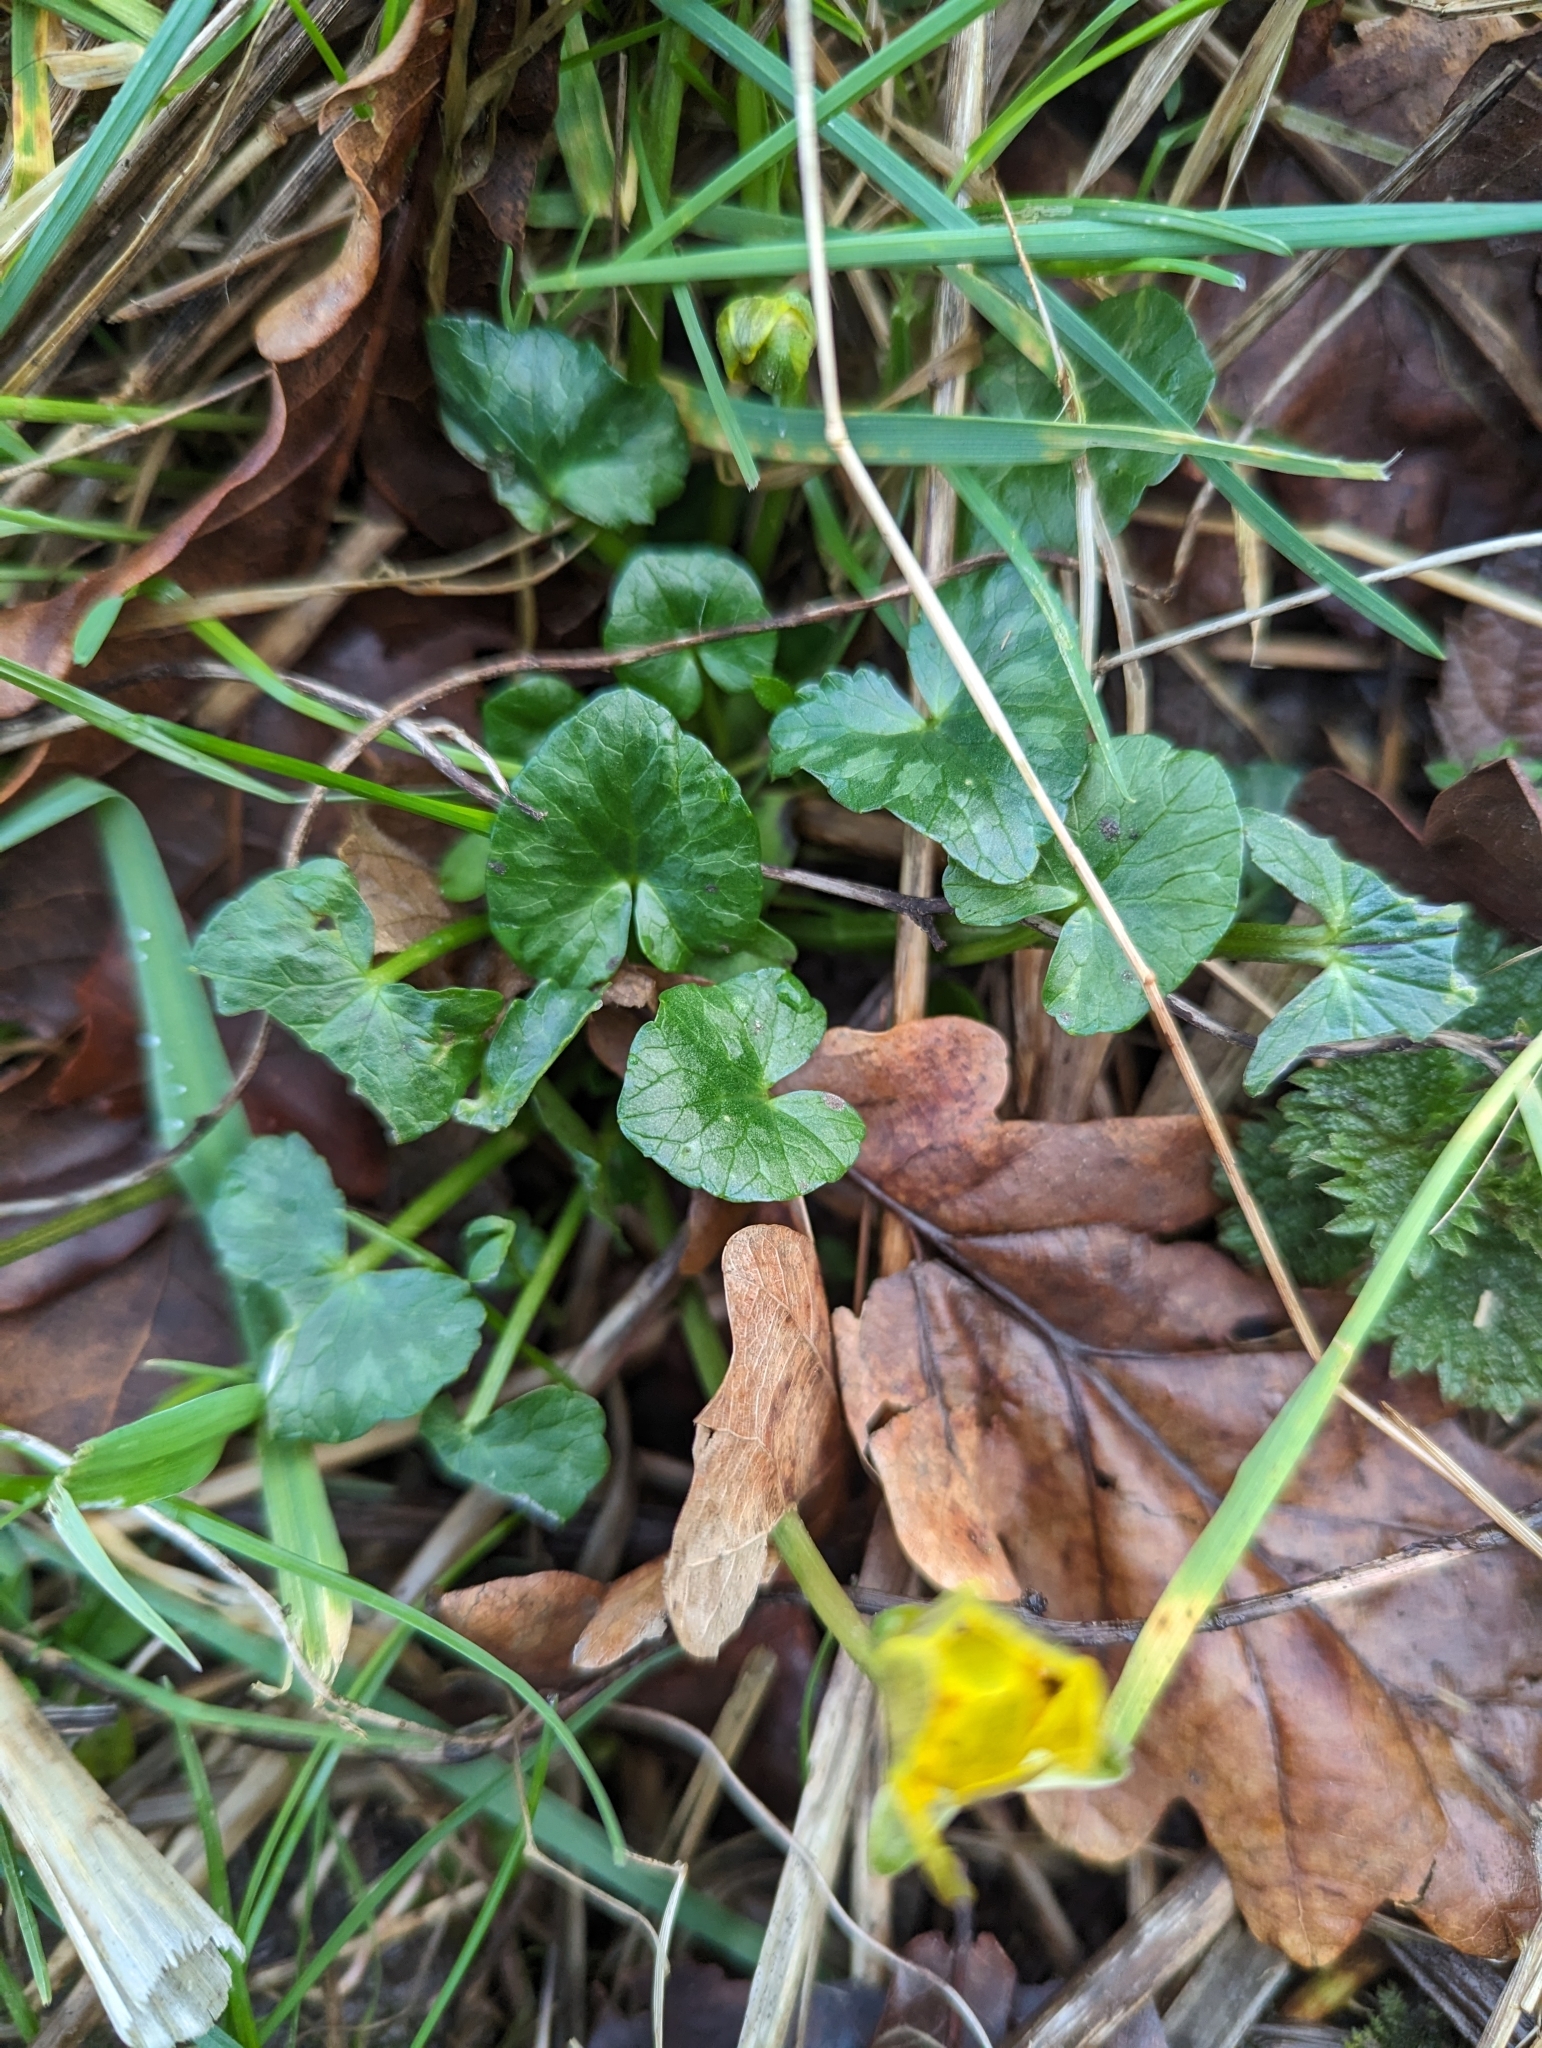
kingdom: Plantae
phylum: Tracheophyta
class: Magnoliopsida
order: Ranunculales
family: Ranunculaceae
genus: Ficaria
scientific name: Ficaria verna
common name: Lesser celandine
